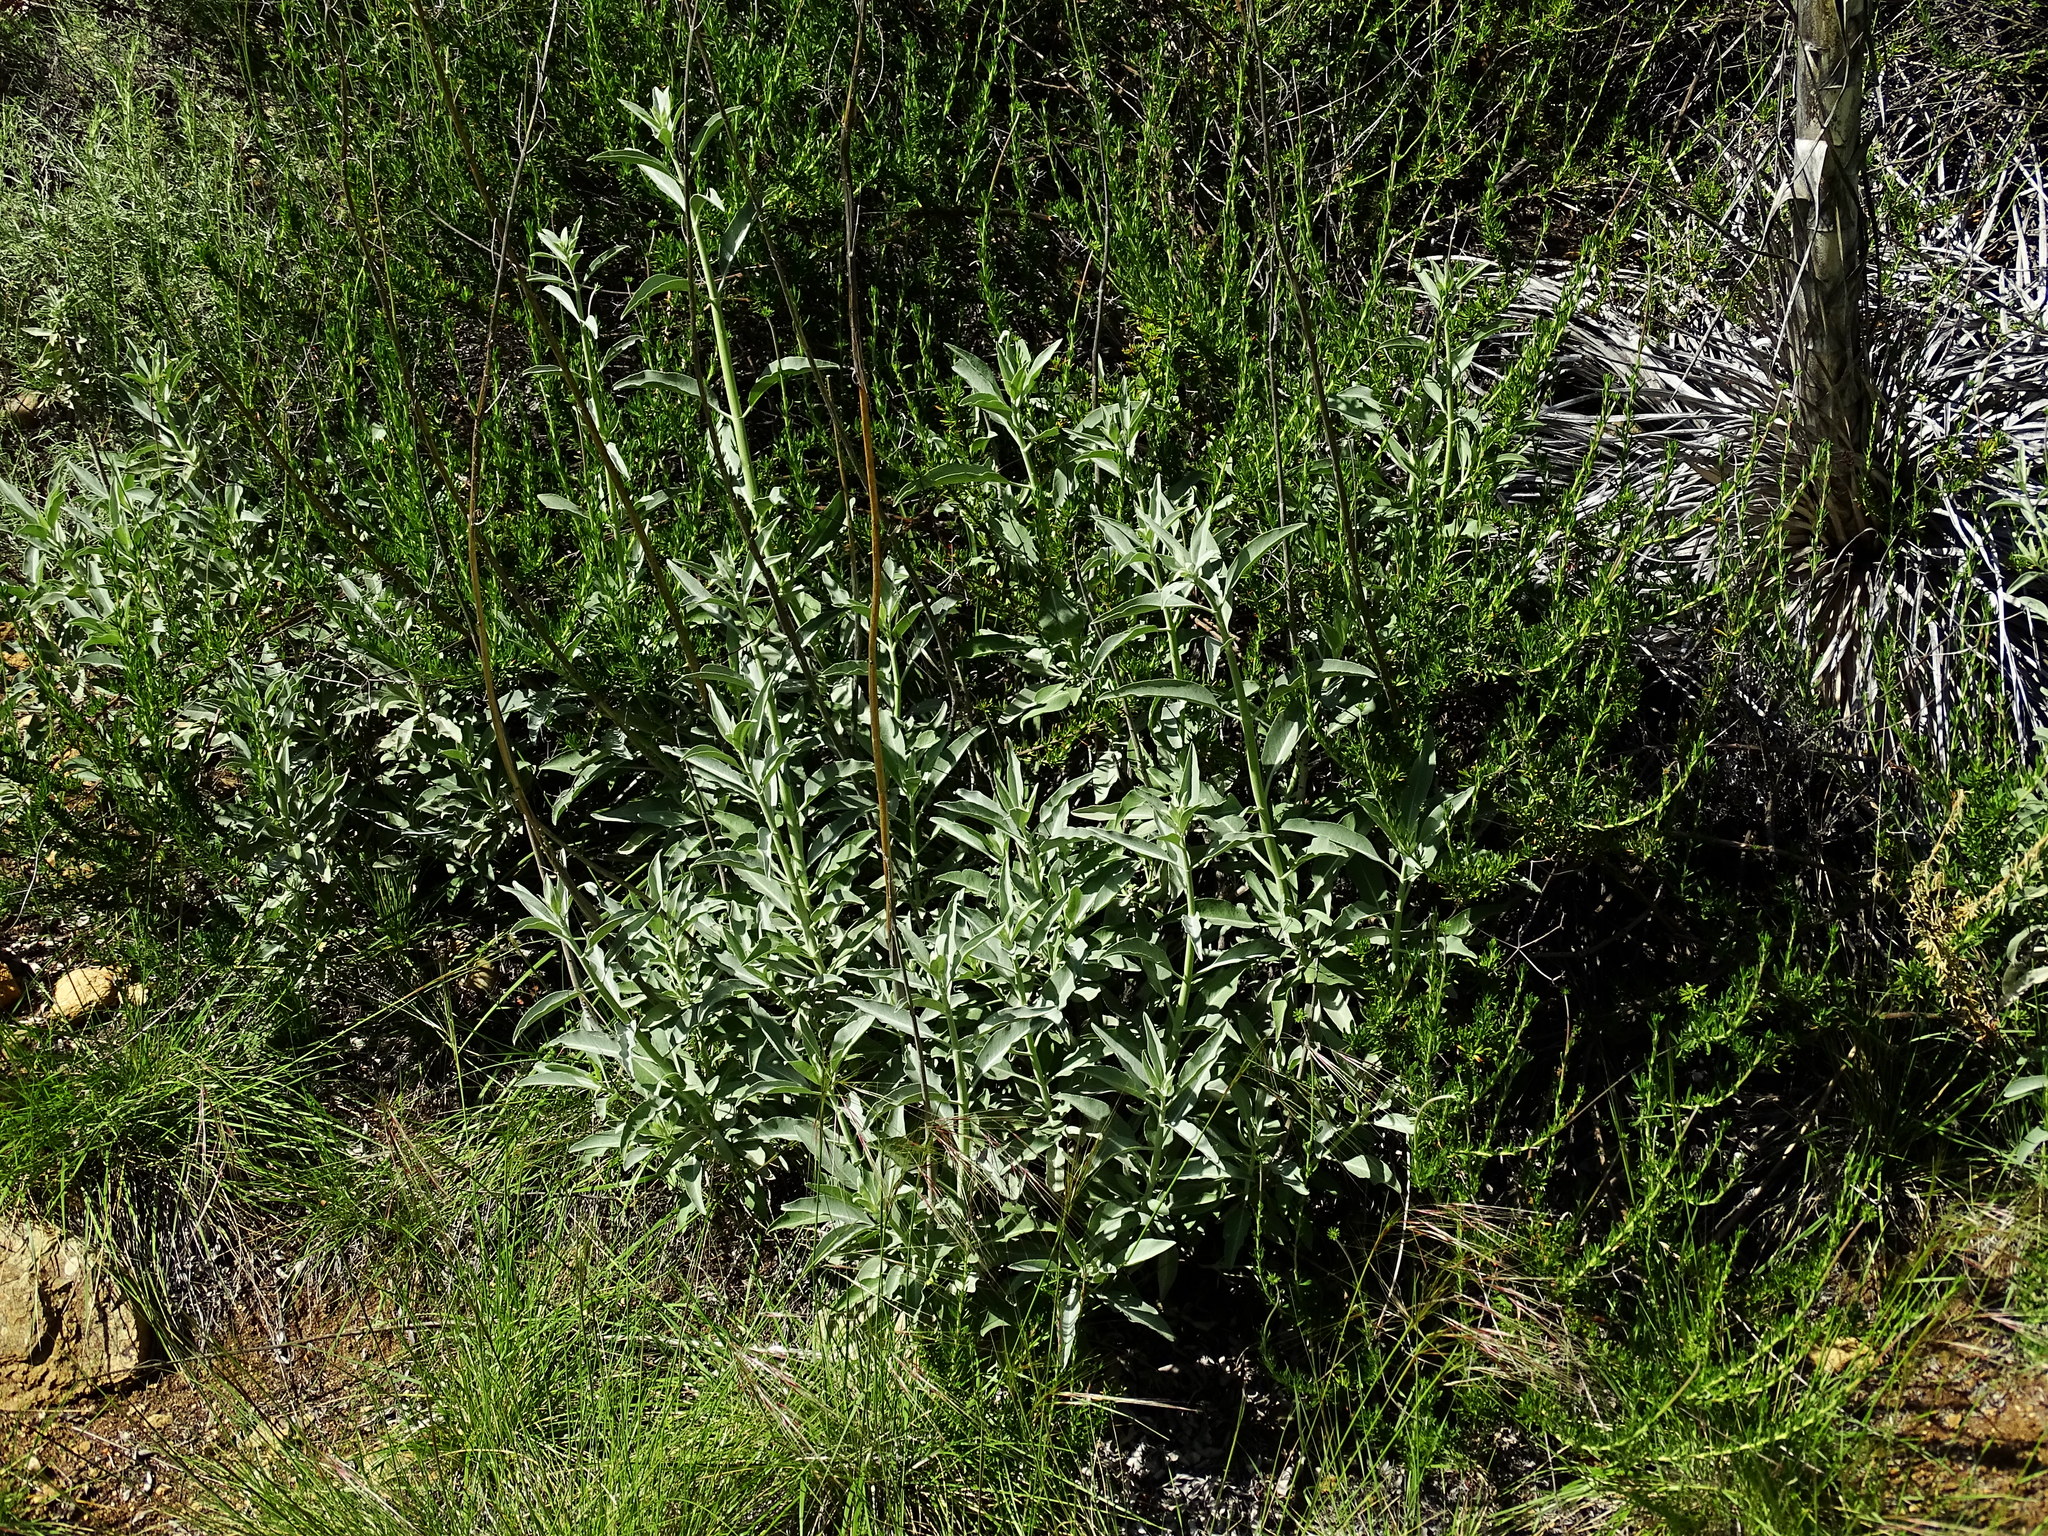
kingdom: Plantae
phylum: Tracheophyta
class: Magnoliopsida
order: Lamiales
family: Lamiaceae
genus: Salvia
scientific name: Salvia apiana
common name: White sage
